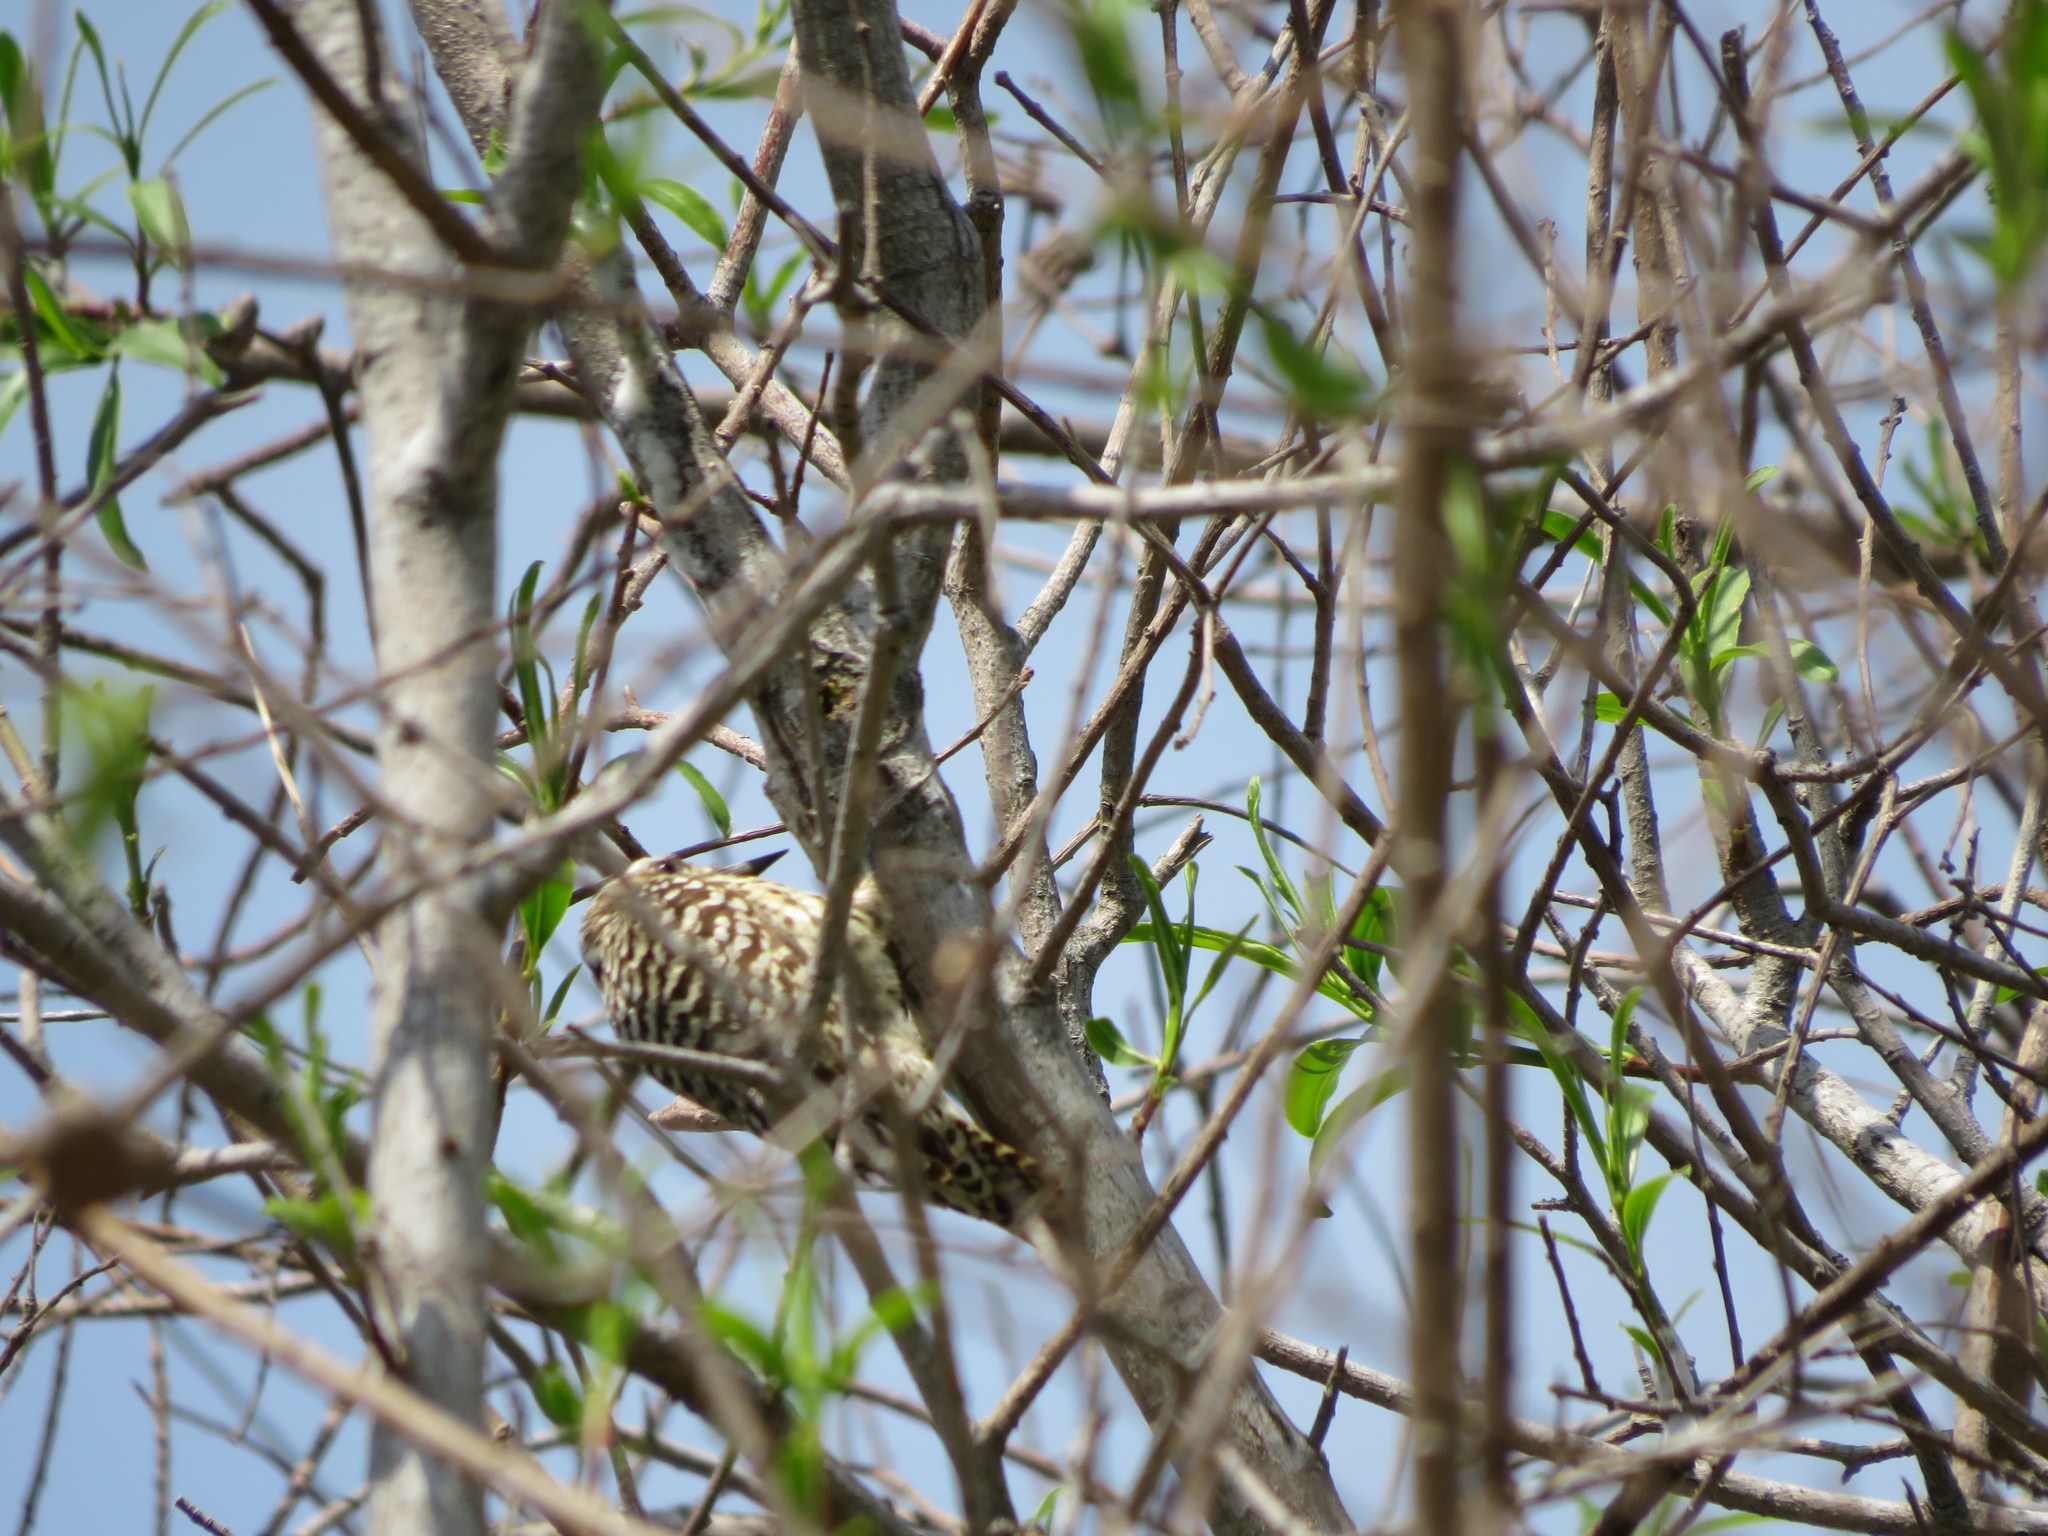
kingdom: Animalia
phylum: Chordata
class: Aves
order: Piciformes
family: Picidae
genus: Veniliornis
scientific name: Veniliornis mixtus
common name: Checkered woodpecker
